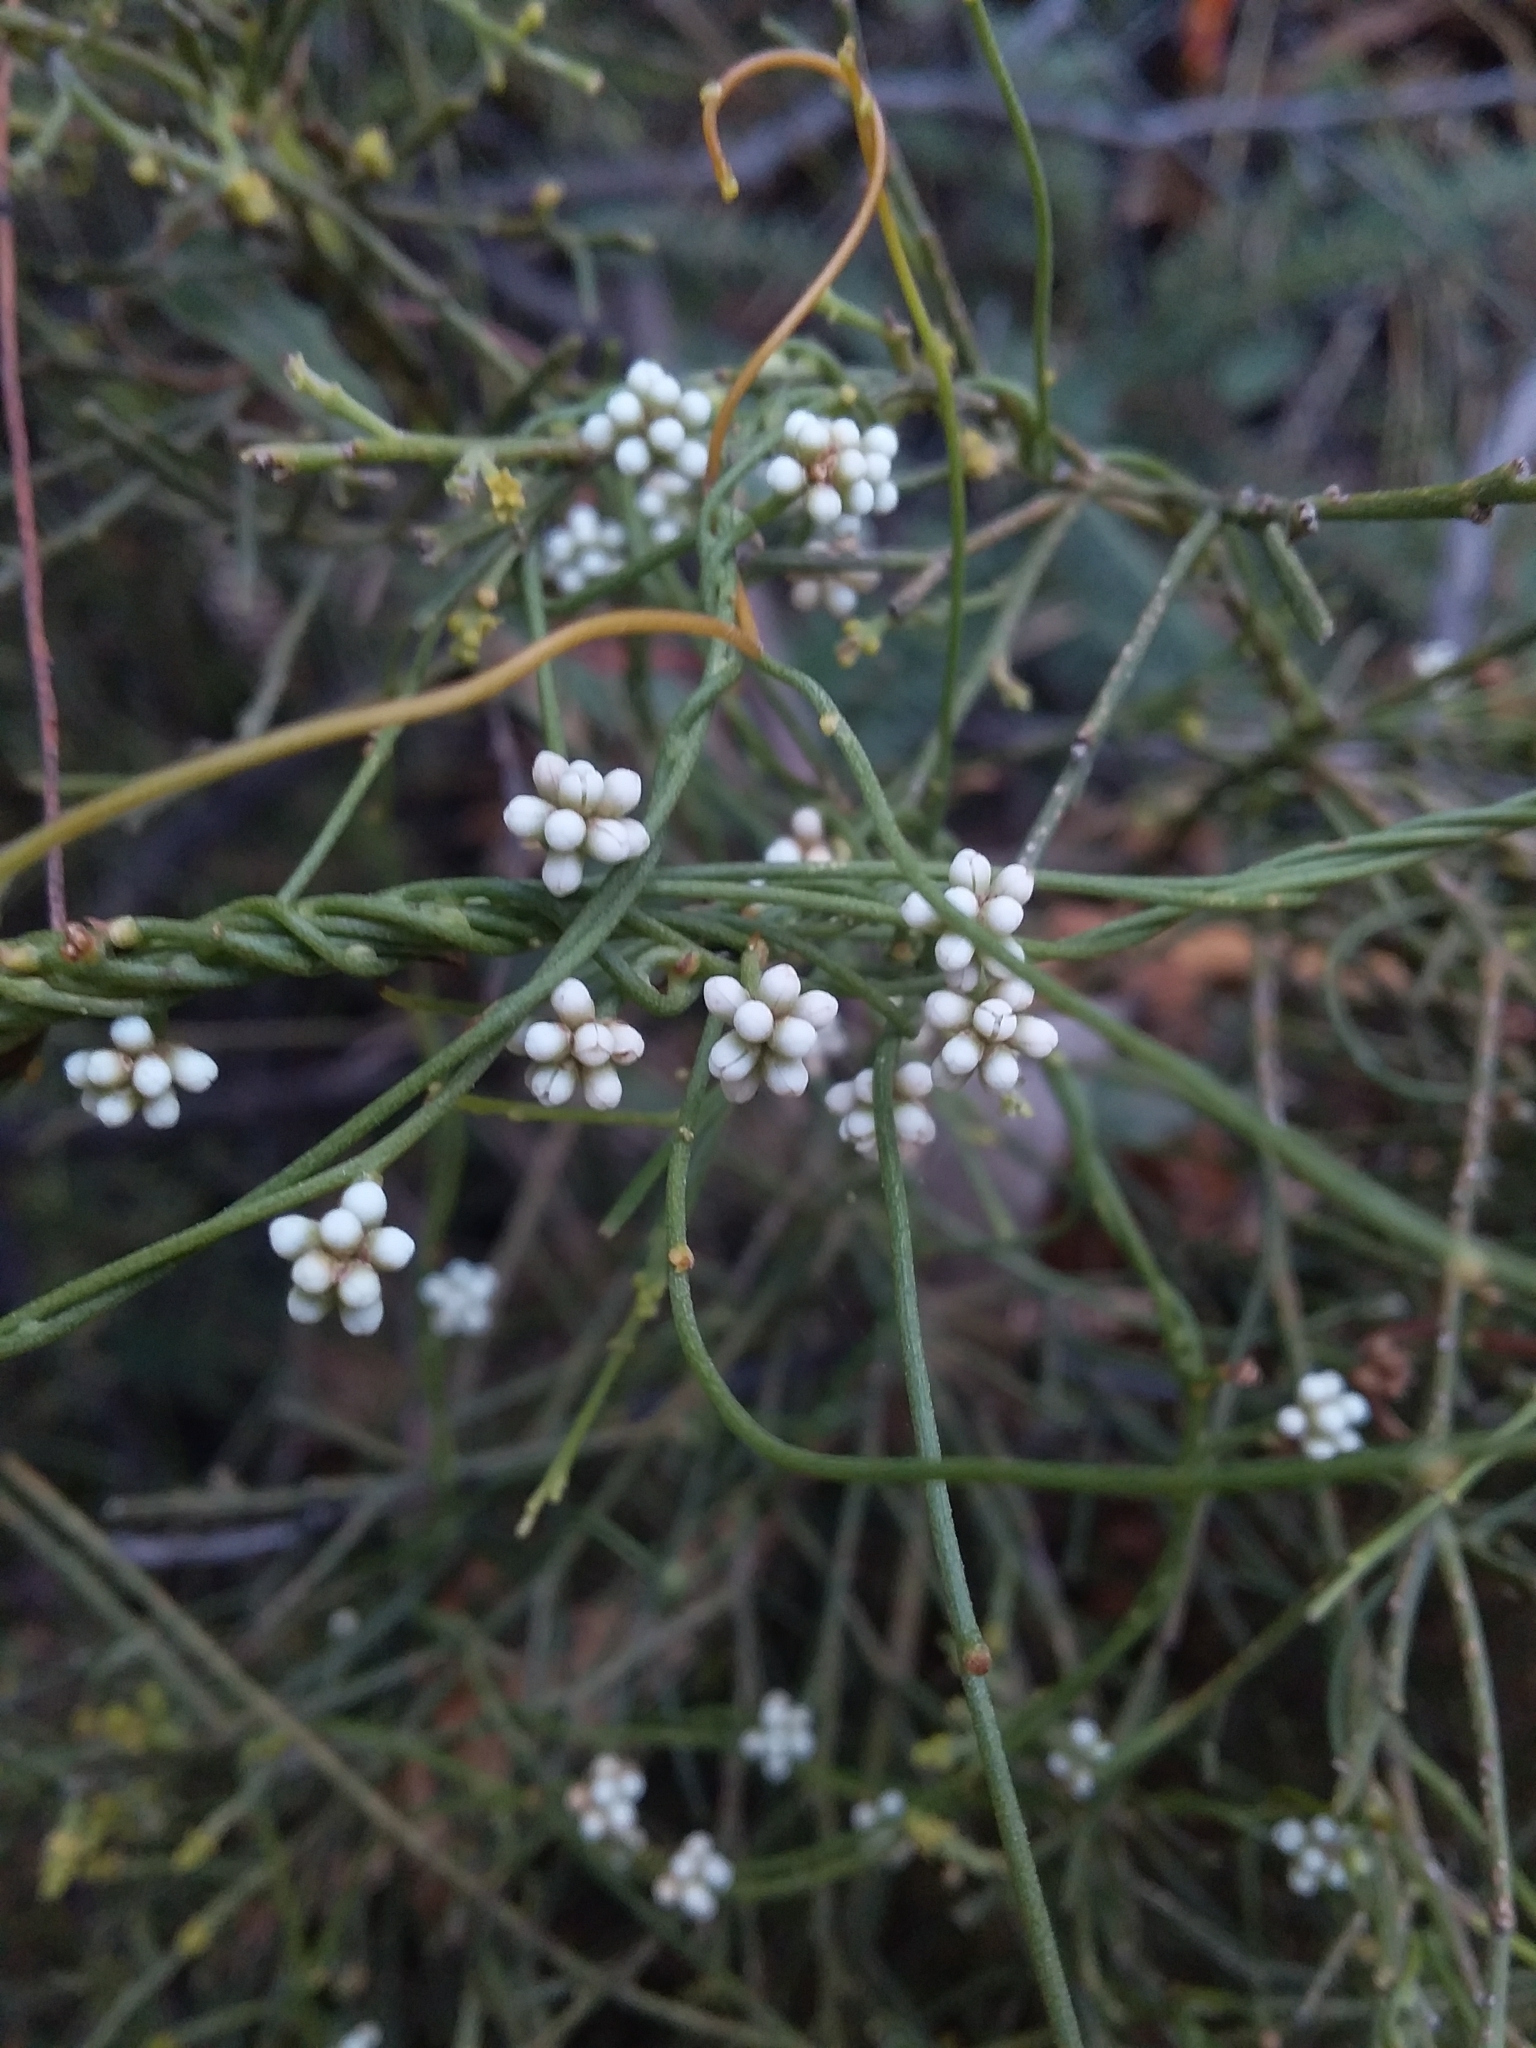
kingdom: Plantae
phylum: Tracheophyta
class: Magnoliopsida
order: Laurales
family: Lauraceae
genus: Cassytha
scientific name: Cassytha glabella
